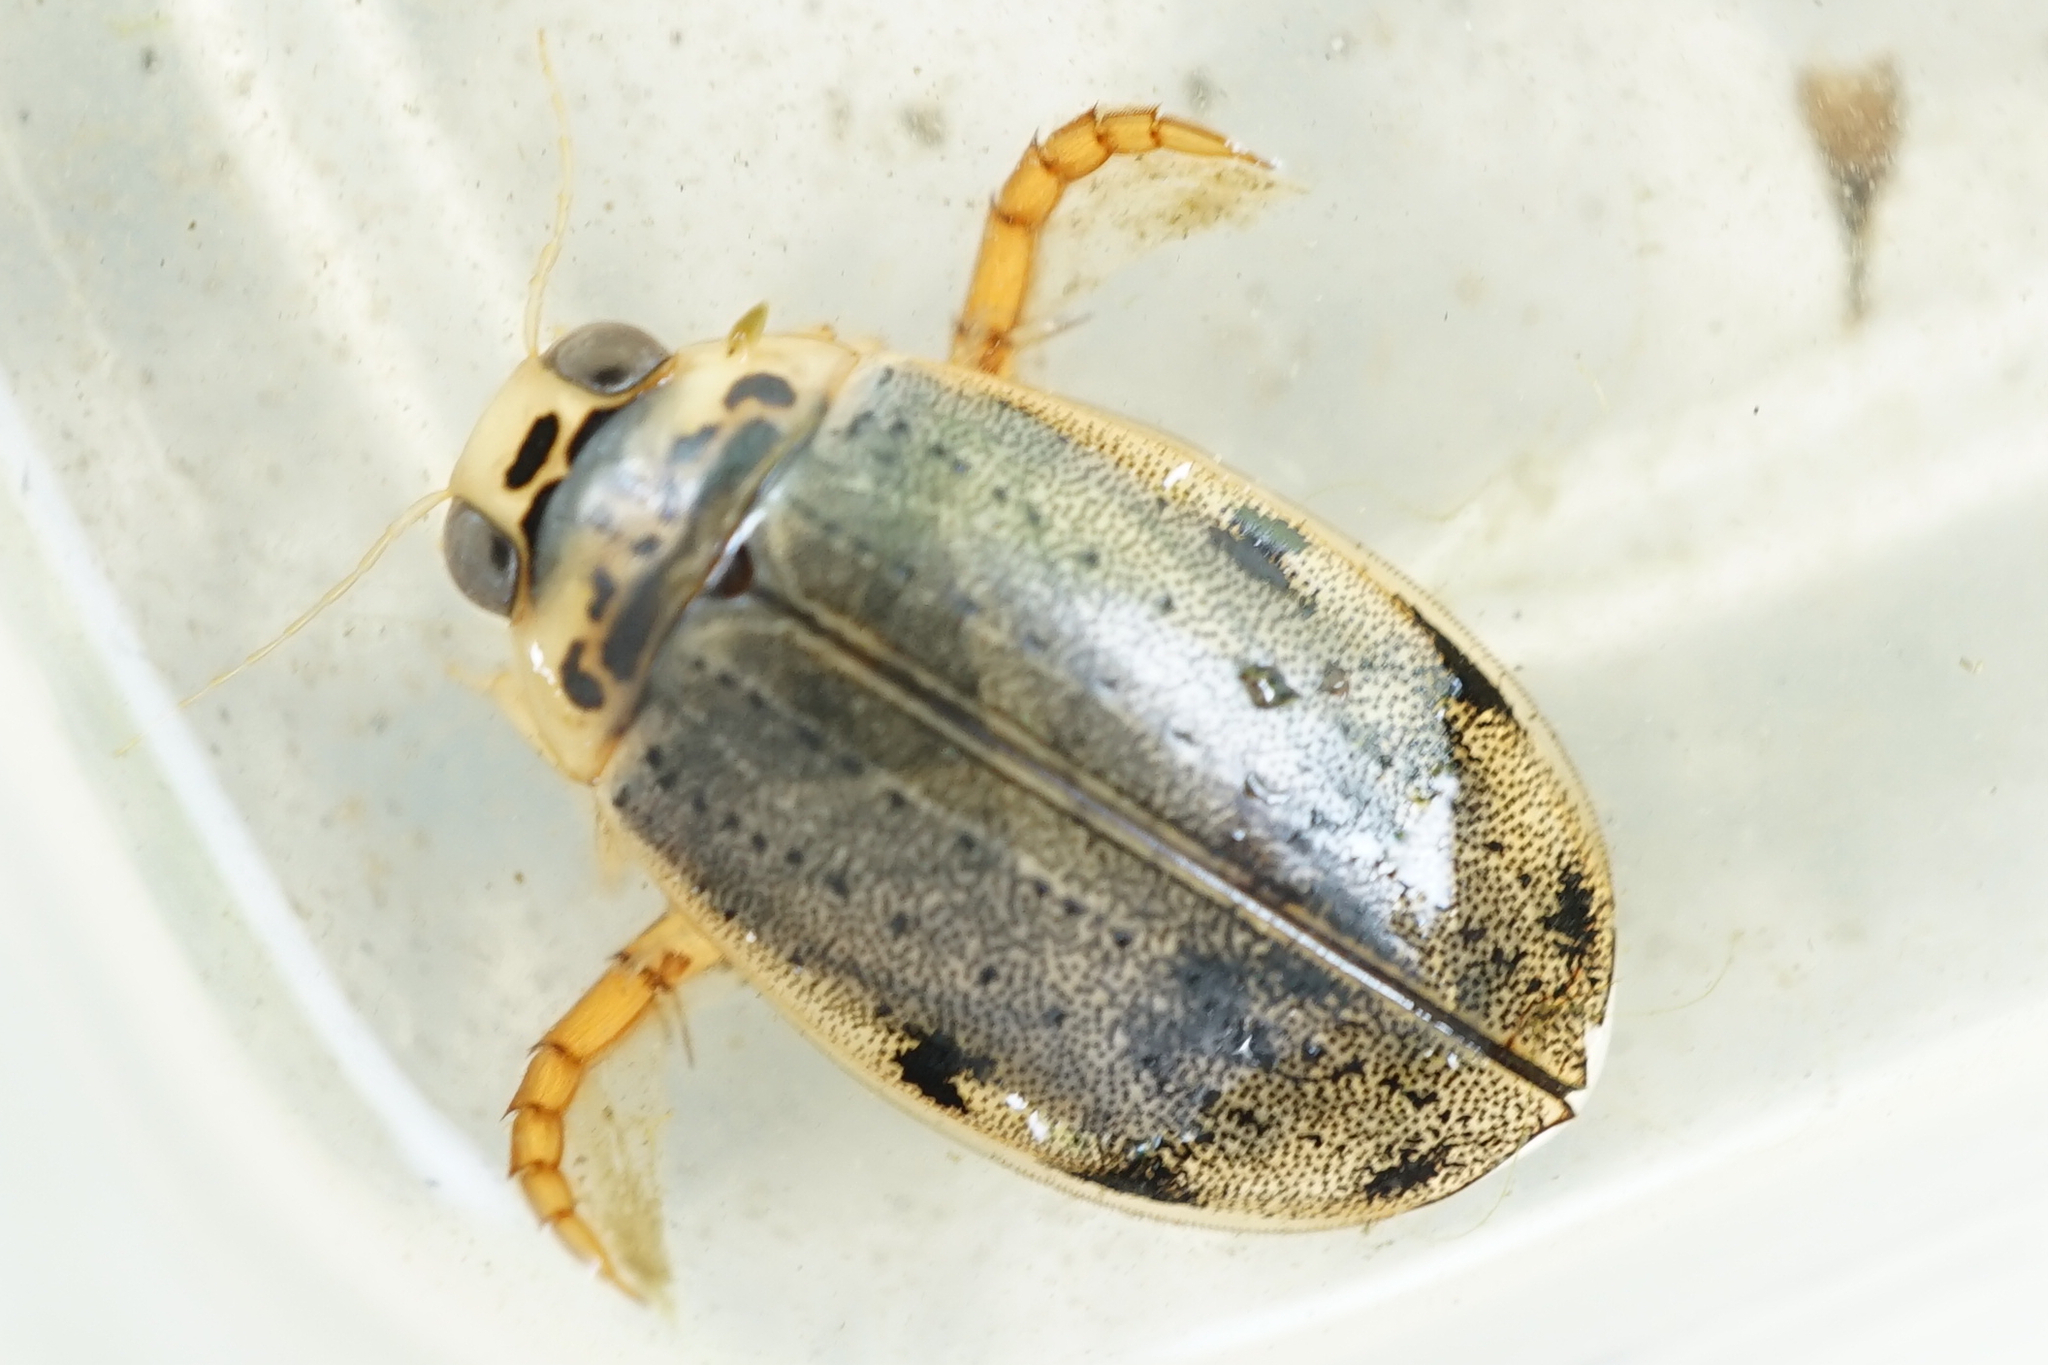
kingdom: Animalia
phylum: Arthropoda
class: Insecta
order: Coleoptera
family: Dytiscidae
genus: Eretes
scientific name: Eretes griseus
